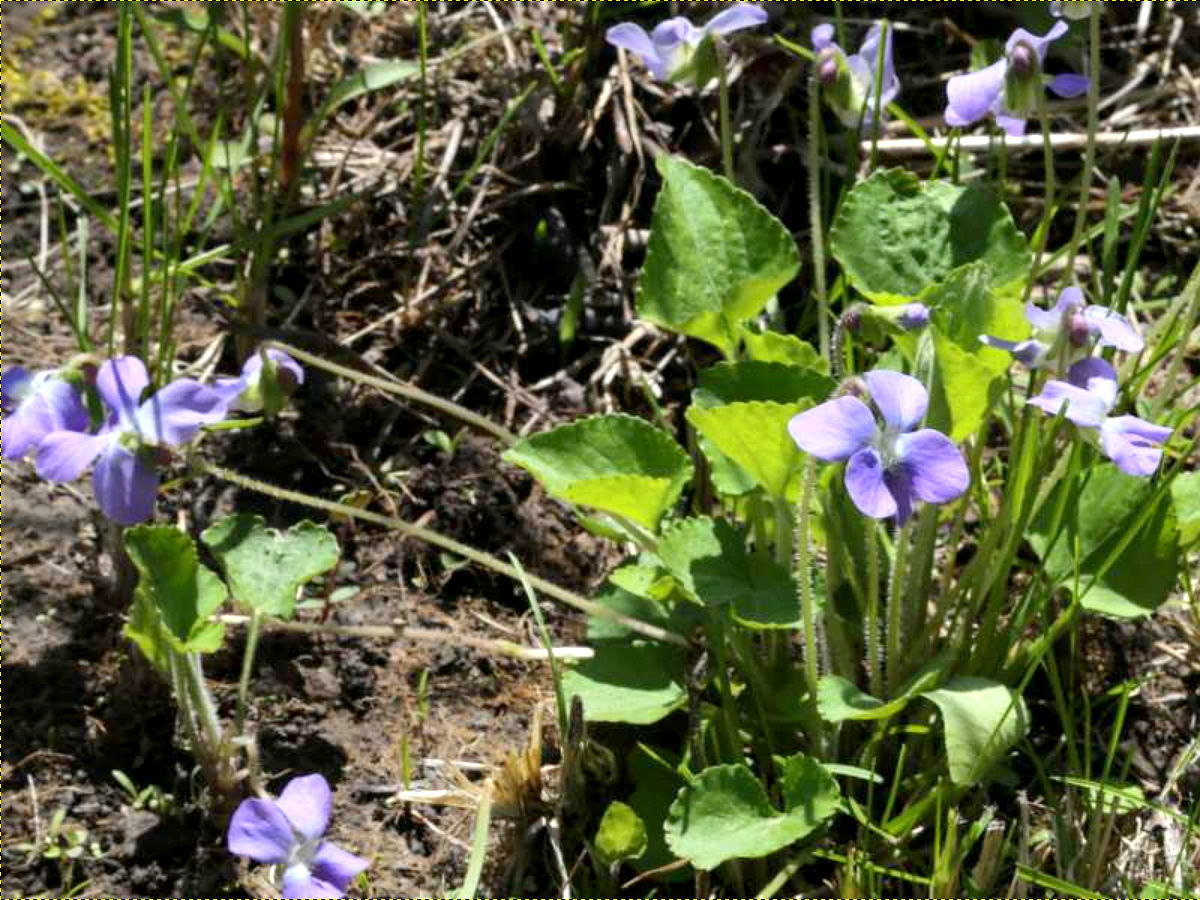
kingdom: Plantae
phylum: Tracheophyta
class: Magnoliopsida
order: Malpighiales
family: Violaceae
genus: Viola
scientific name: Viola sororia
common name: Dooryard violet
